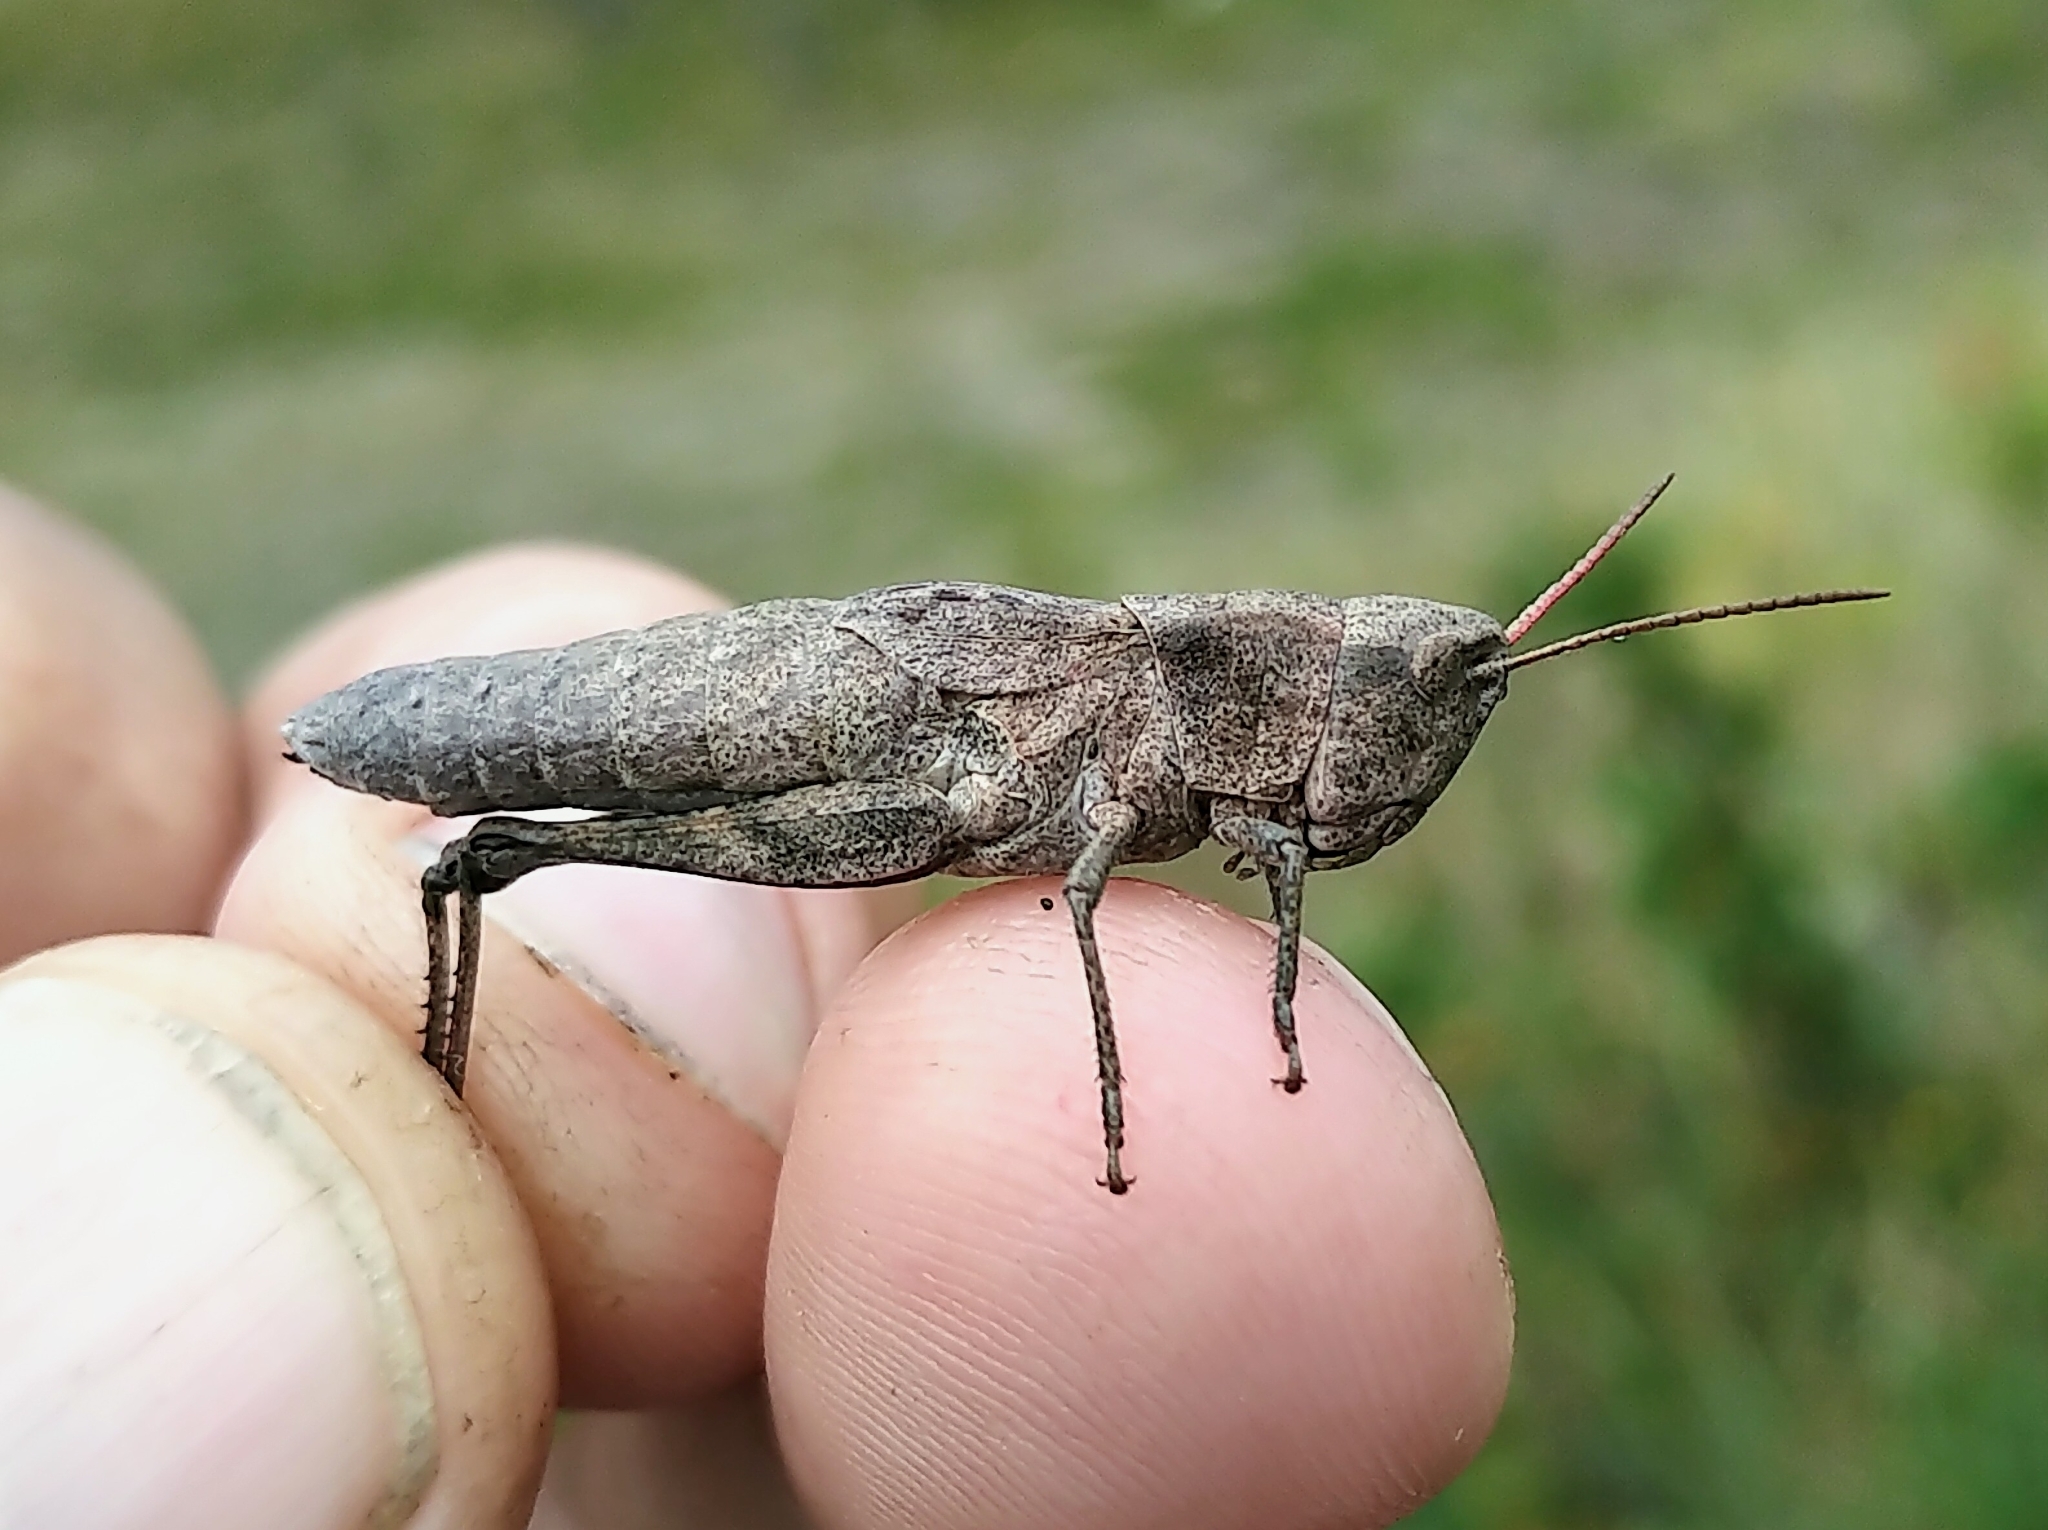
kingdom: Animalia
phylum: Arthropoda
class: Insecta
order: Orthoptera
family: Acrididae
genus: Chloealtis
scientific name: Chloealtis abdominalis
